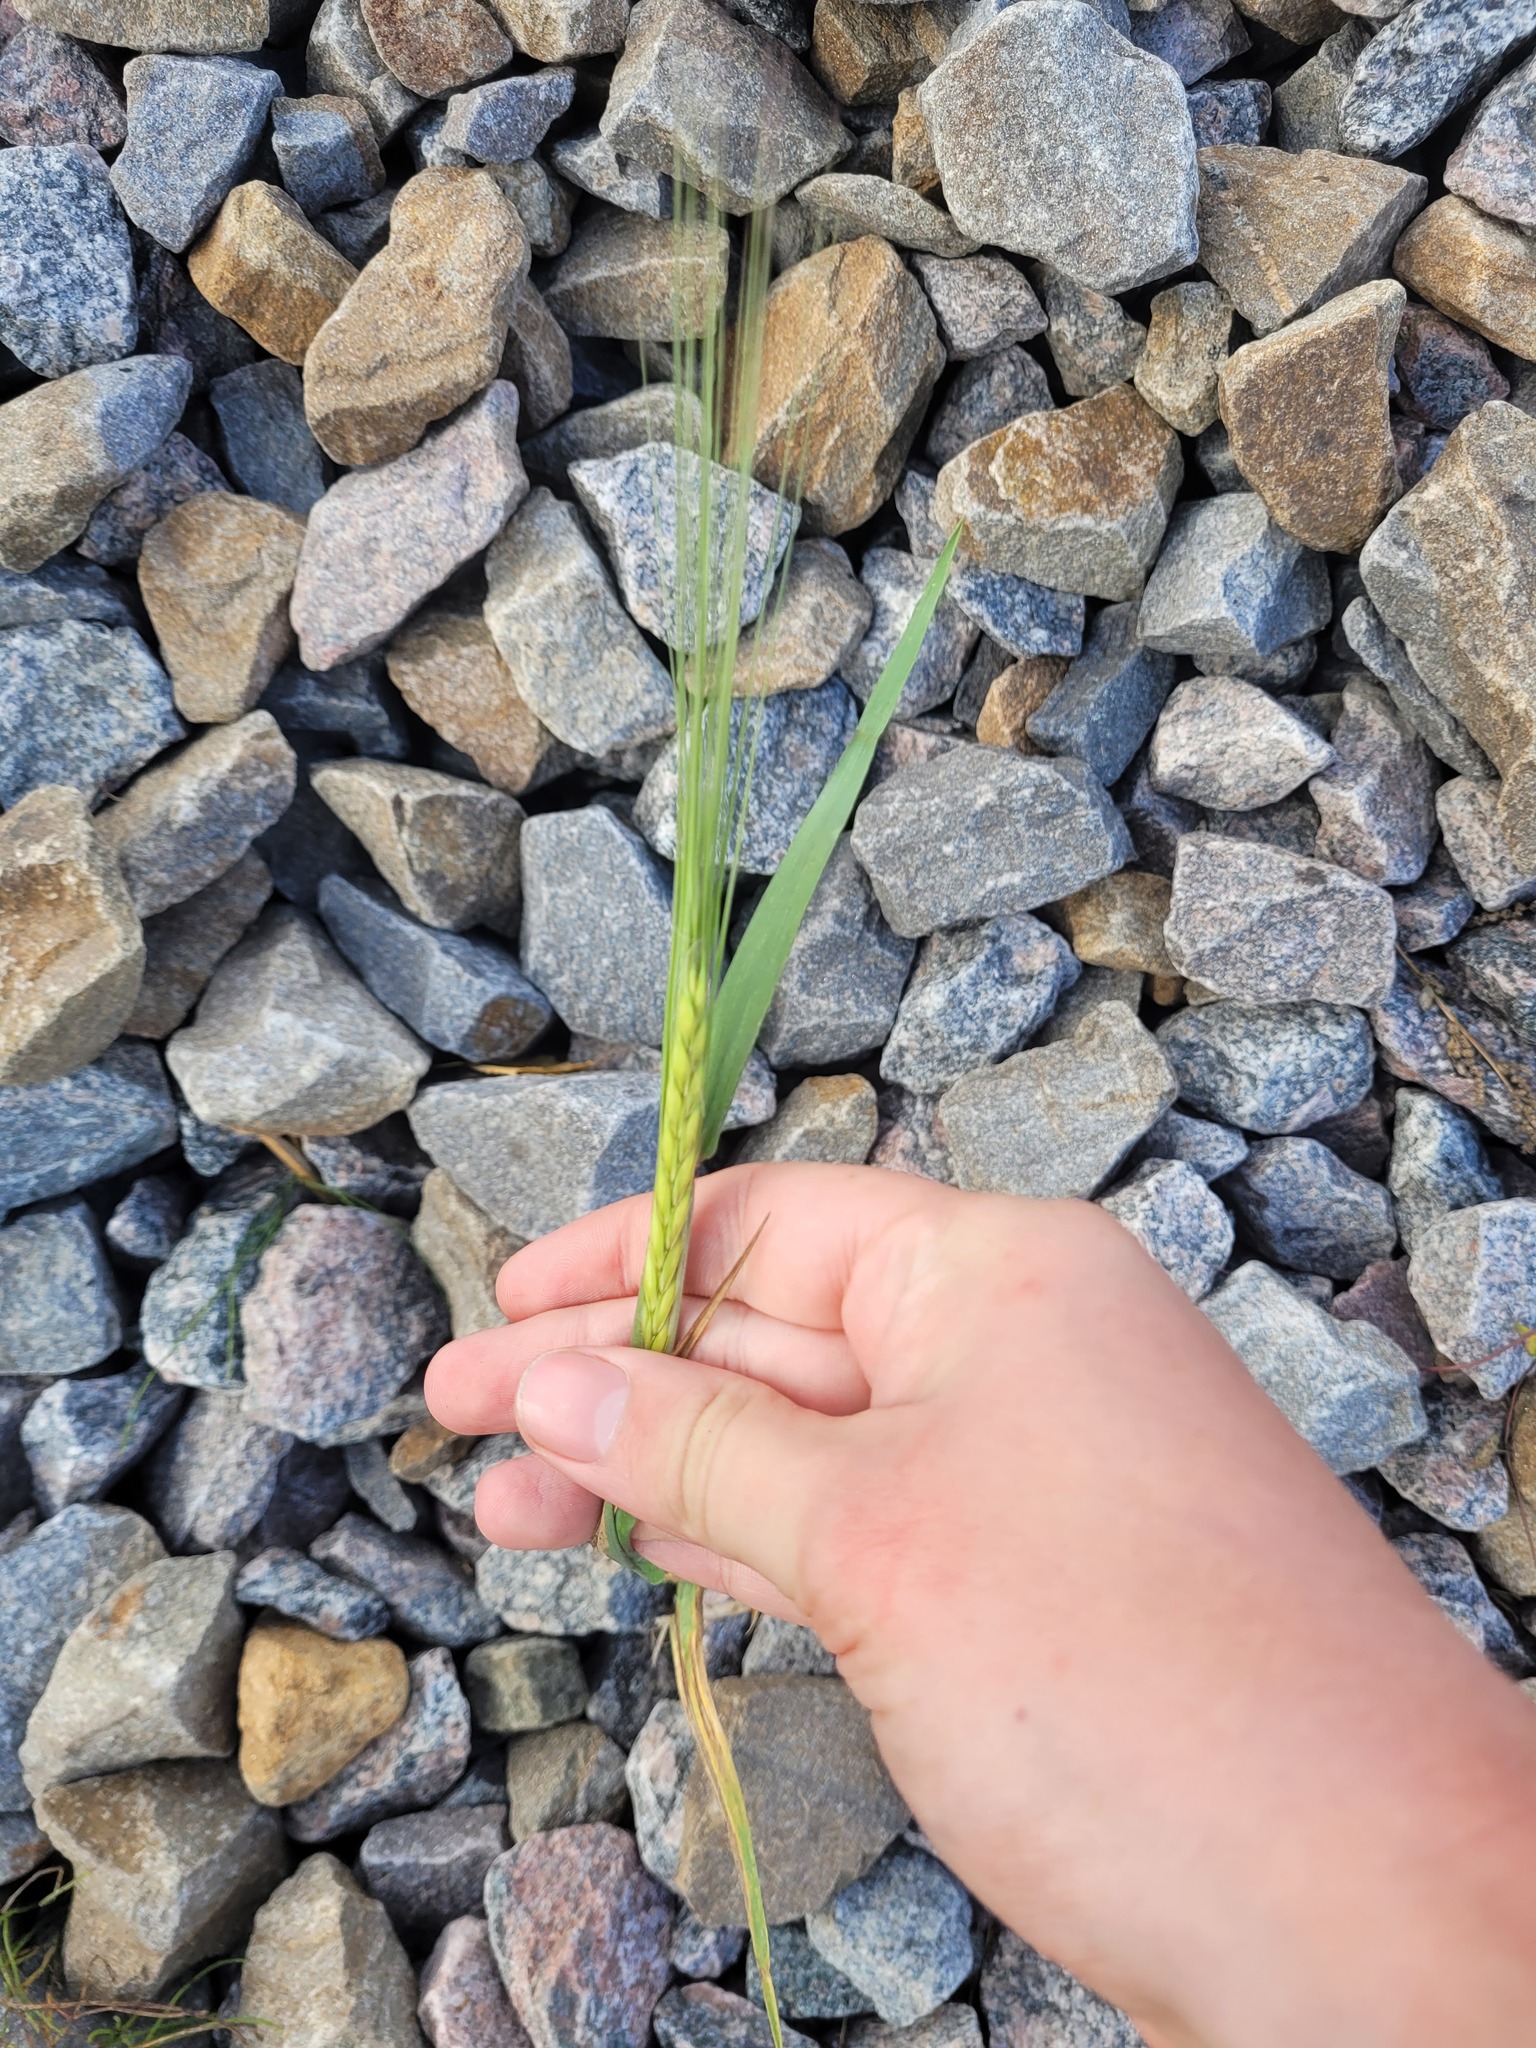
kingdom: Plantae
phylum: Tracheophyta
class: Liliopsida
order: Poales
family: Poaceae
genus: Hordeum
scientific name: Hordeum vulgare
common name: Common barley
